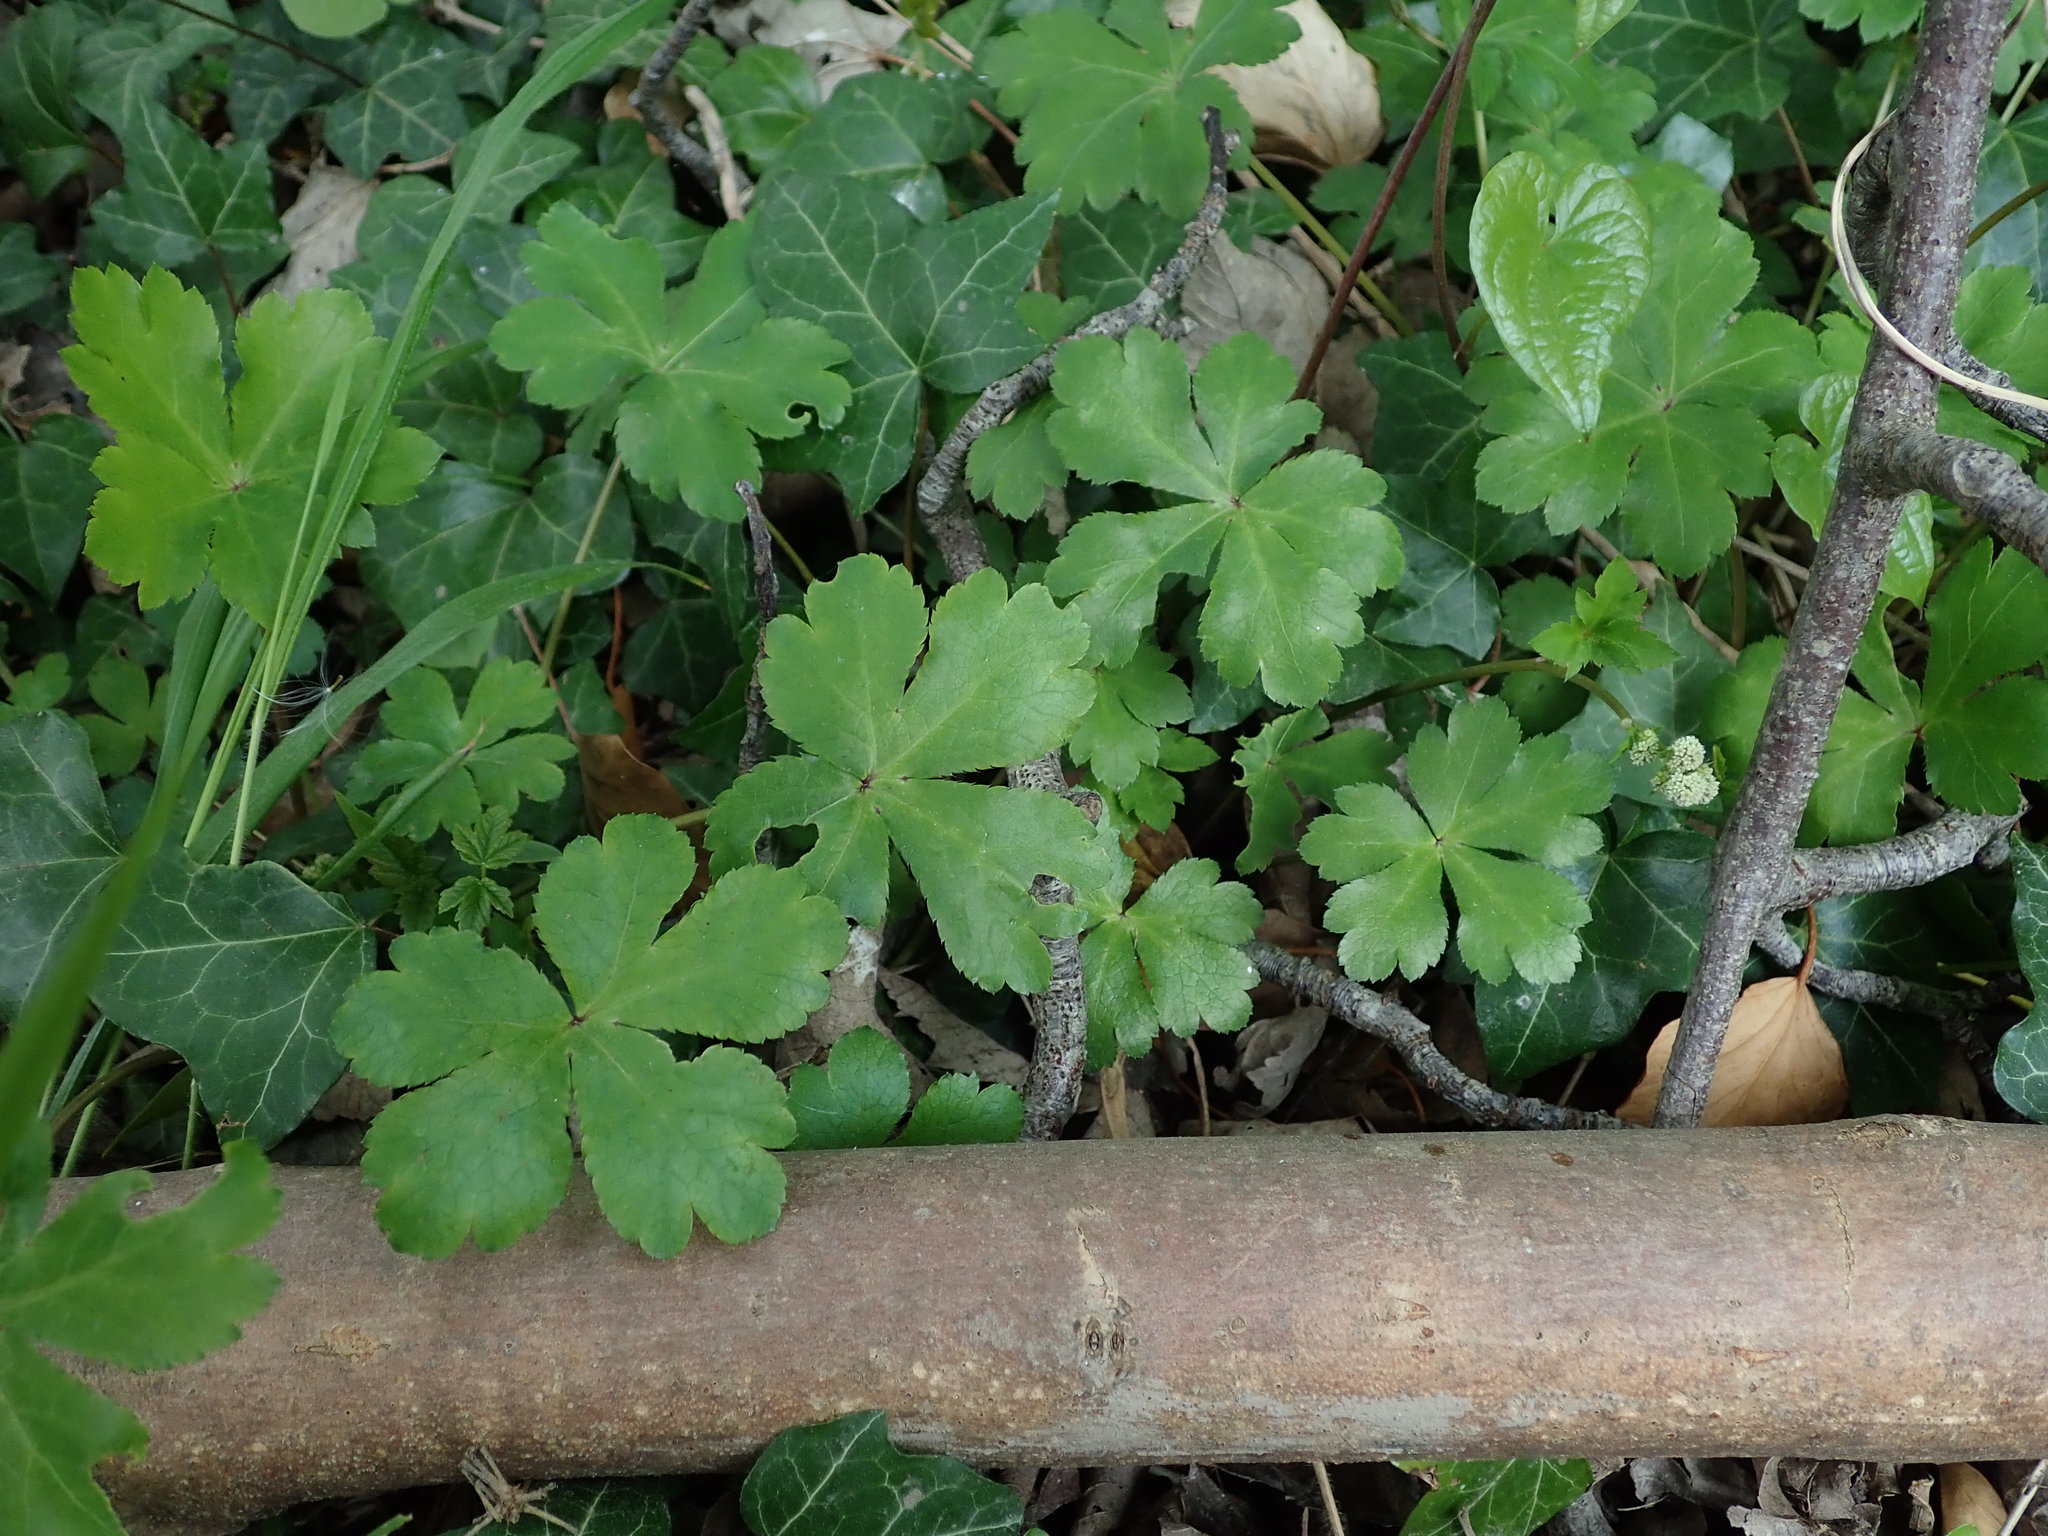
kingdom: Plantae
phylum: Tracheophyta
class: Magnoliopsida
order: Apiales
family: Apiaceae
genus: Sanicula
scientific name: Sanicula europaea
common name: Sanicle
